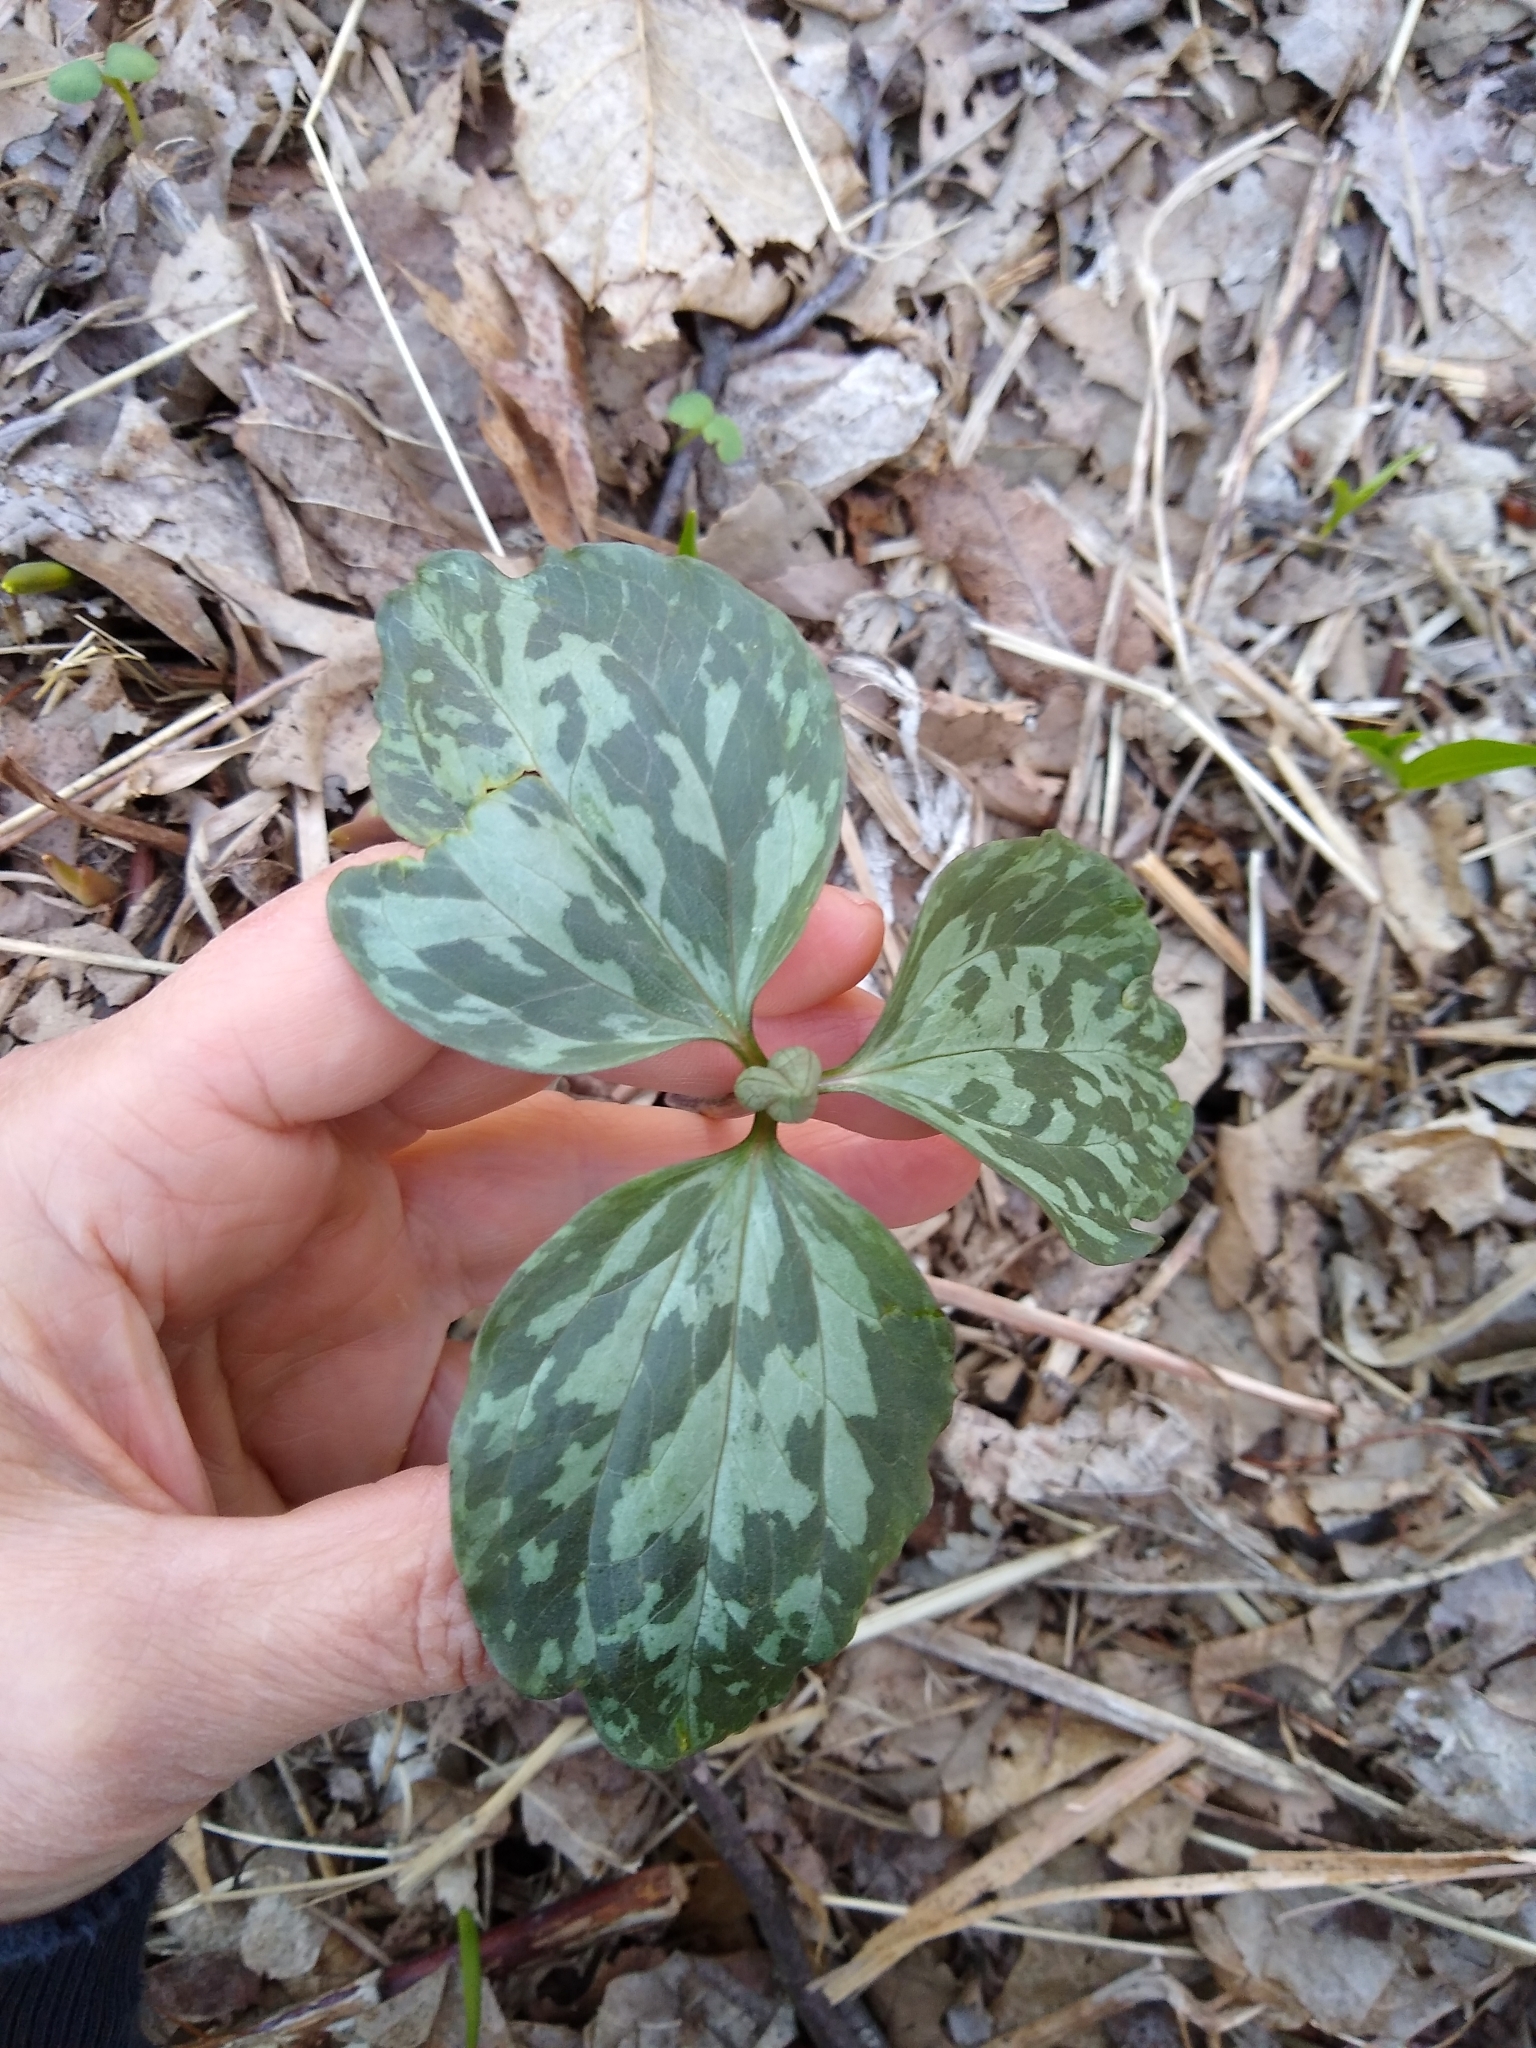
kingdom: Plantae
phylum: Tracheophyta
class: Liliopsida
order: Liliales
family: Melanthiaceae
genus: Trillium
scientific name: Trillium recurvatum
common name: Bloody butcher
